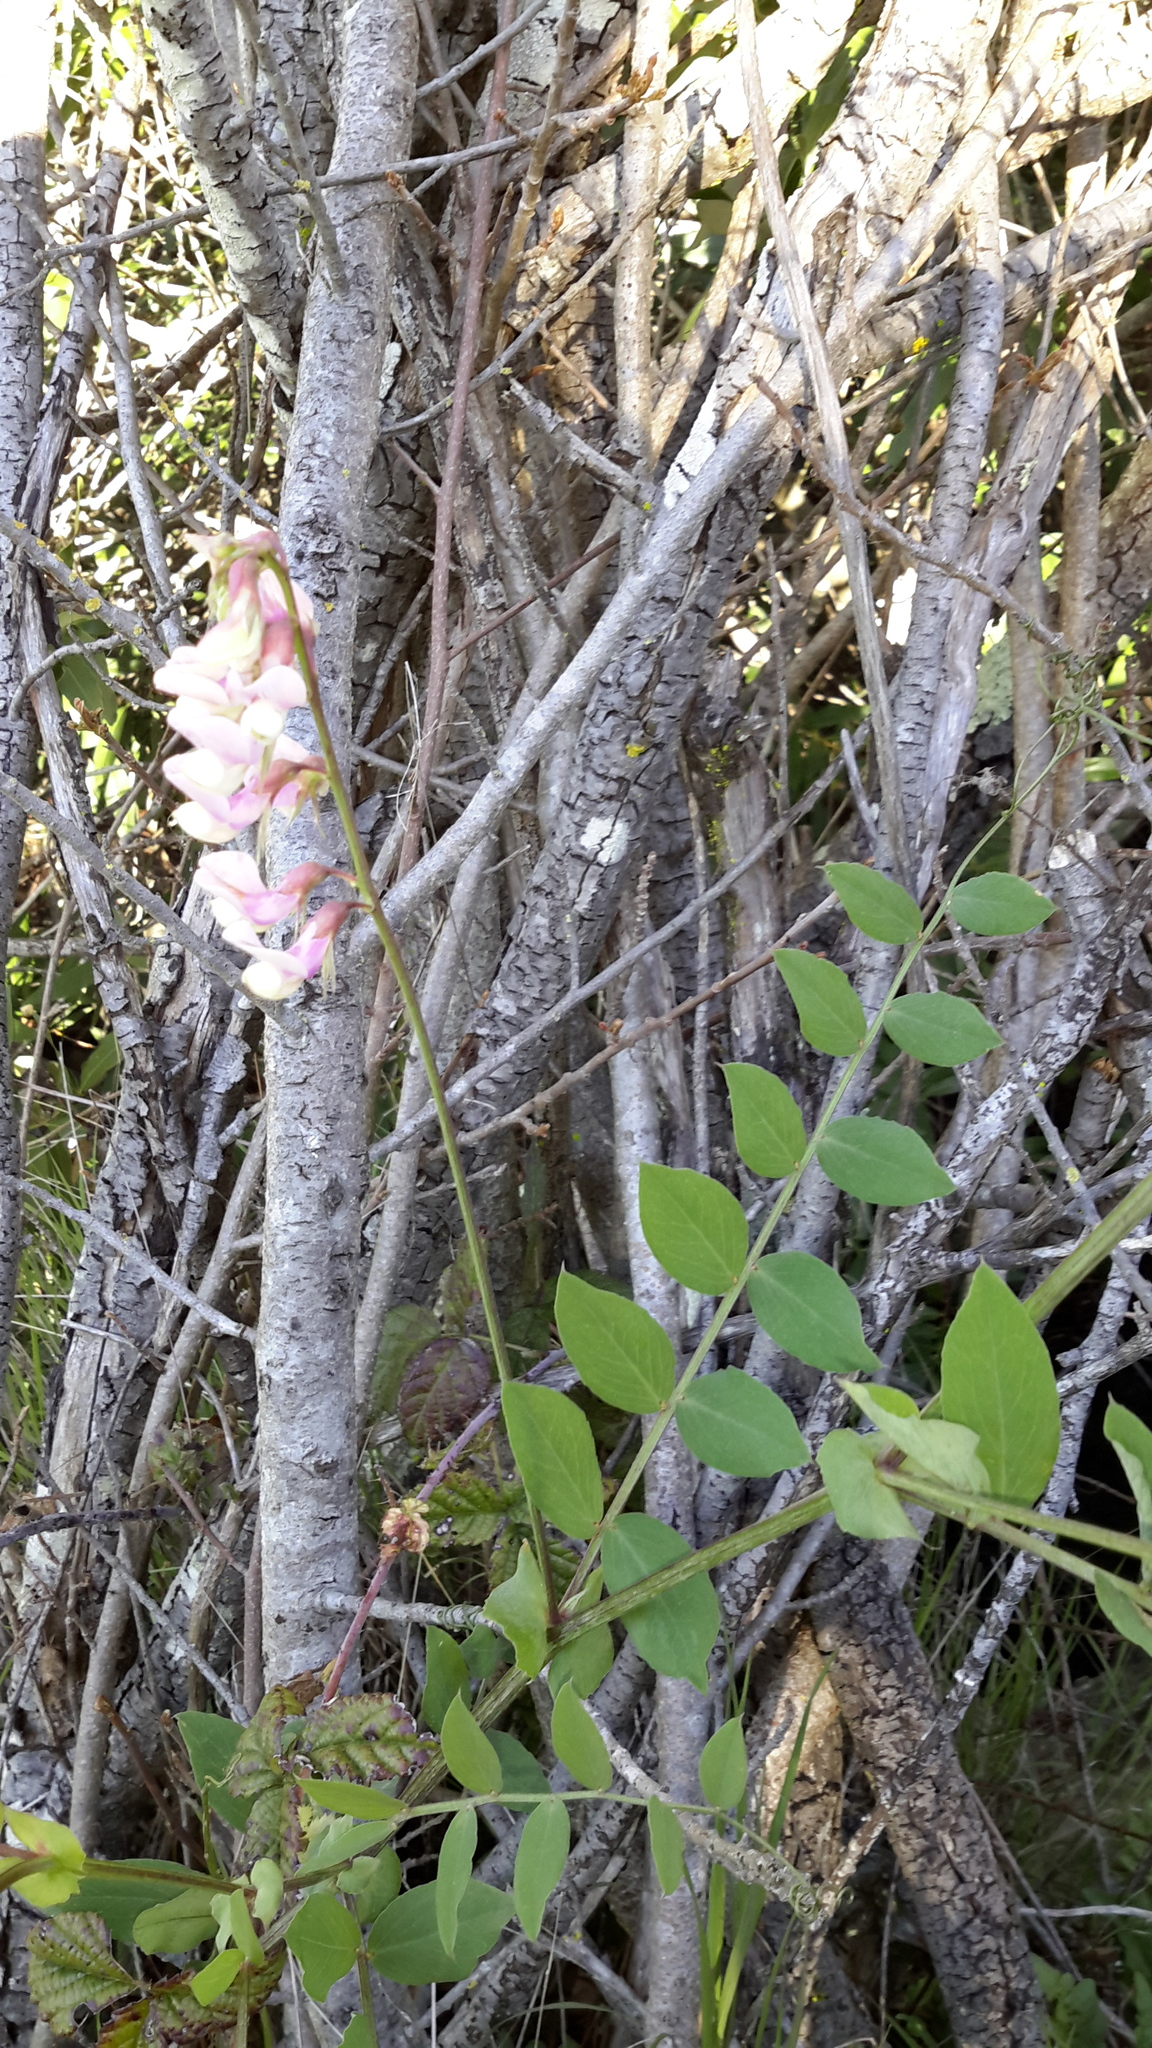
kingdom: Plantae
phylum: Tracheophyta
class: Magnoliopsida
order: Fabales
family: Fabaceae
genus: Lathyrus
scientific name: Lathyrus vestitus
